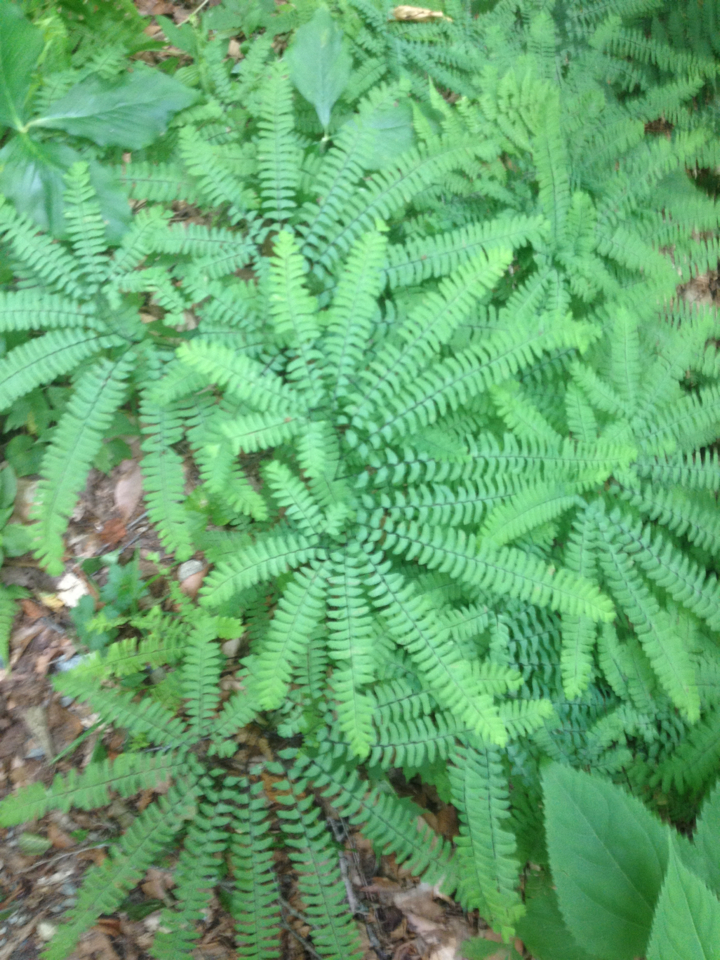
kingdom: Plantae
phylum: Tracheophyta
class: Polypodiopsida
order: Polypodiales
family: Pteridaceae
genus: Adiantum
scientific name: Adiantum pedatum
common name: Five-finger fern
